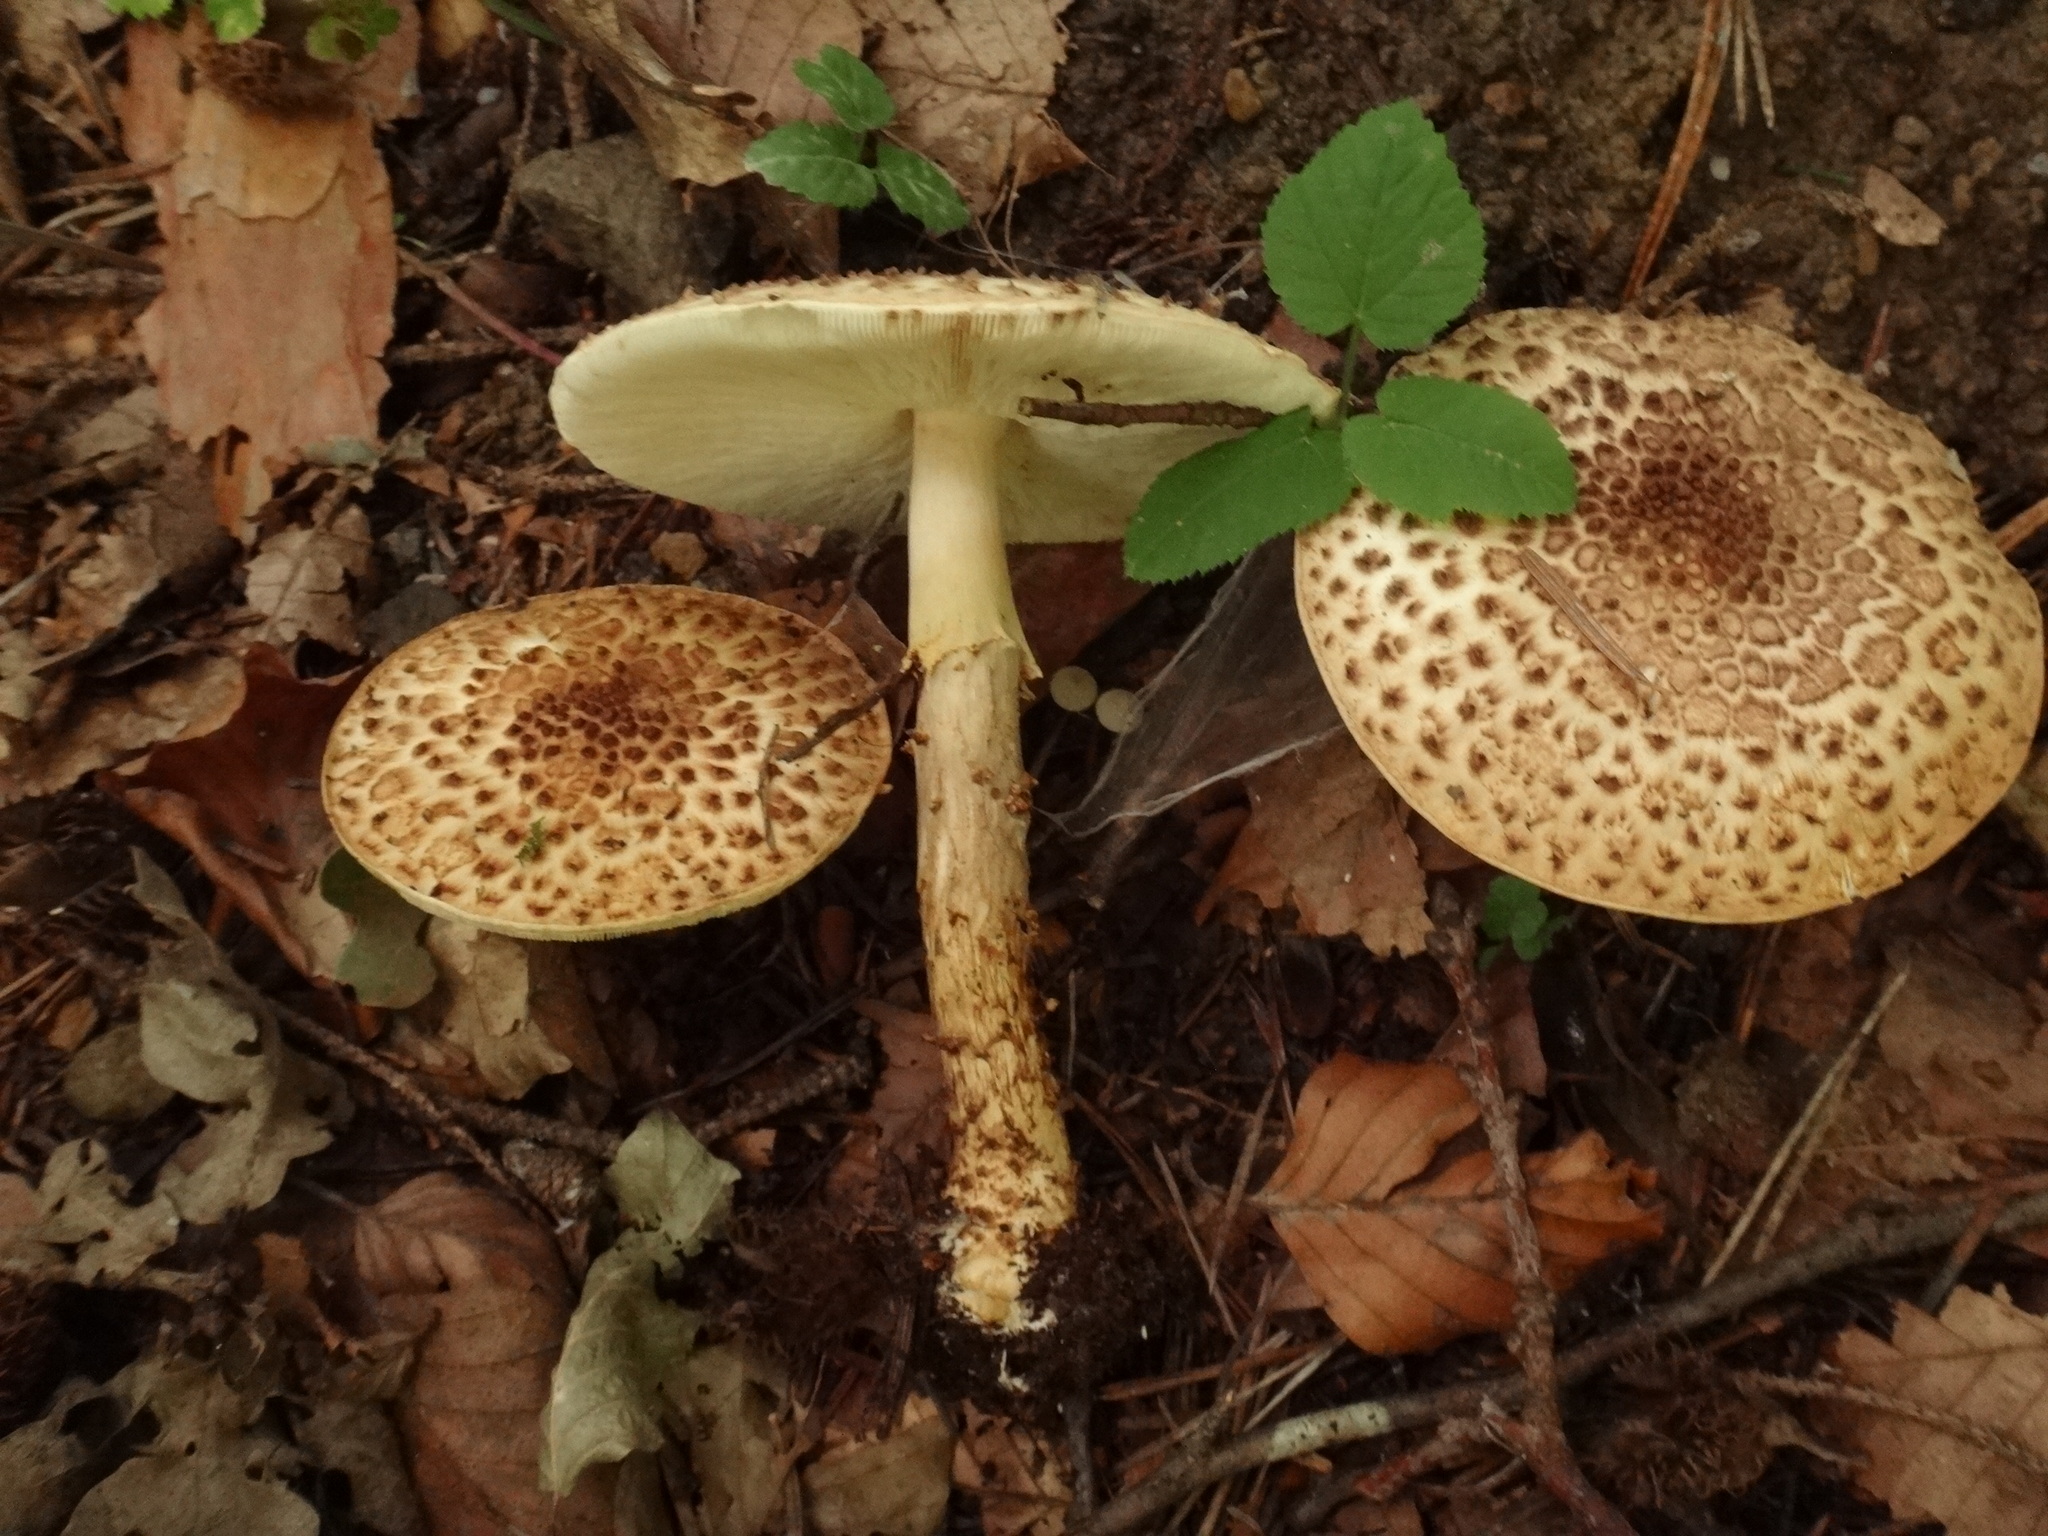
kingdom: Fungi
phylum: Basidiomycota
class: Agaricomycetes
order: Agaricales
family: Agaricaceae
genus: Echinoderma
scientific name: Echinoderma asperum
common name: Freckled dapperling
